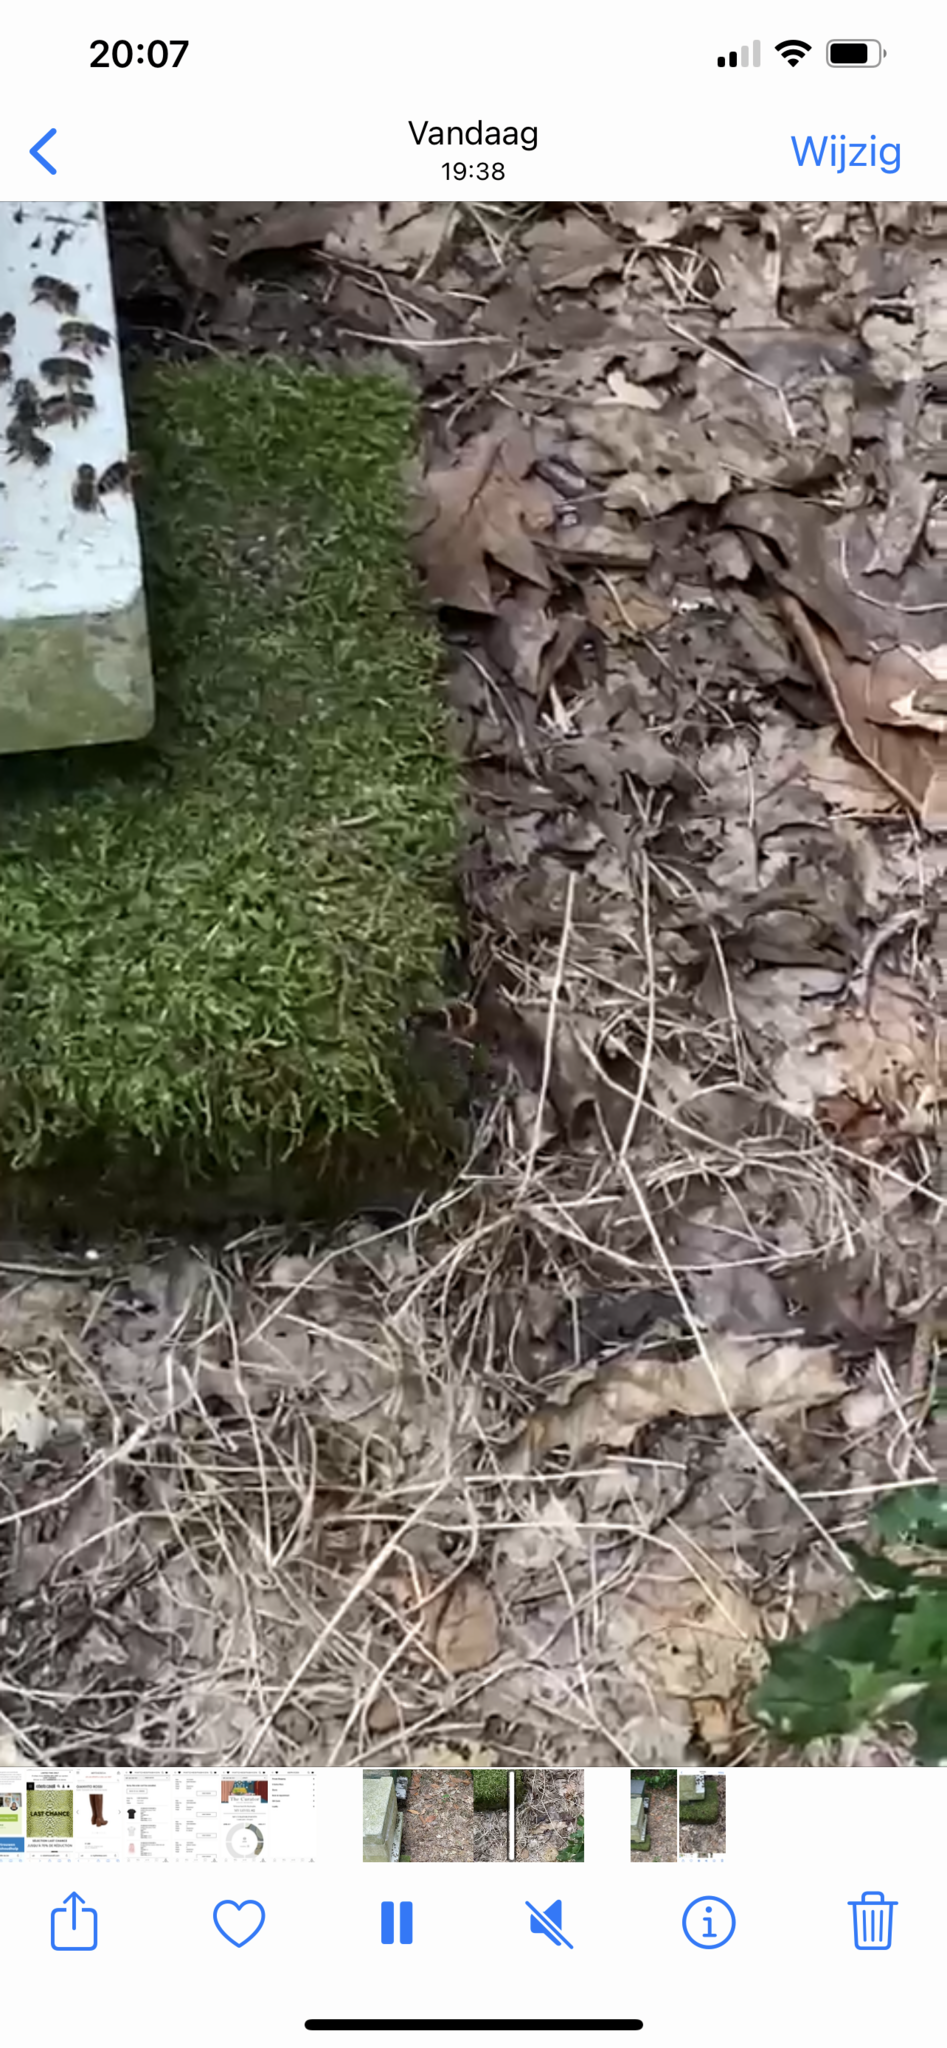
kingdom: Animalia
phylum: Arthropoda
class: Insecta
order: Hymenoptera
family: Vespidae
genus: Vespa
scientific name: Vespa velutina
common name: Asian hornet
